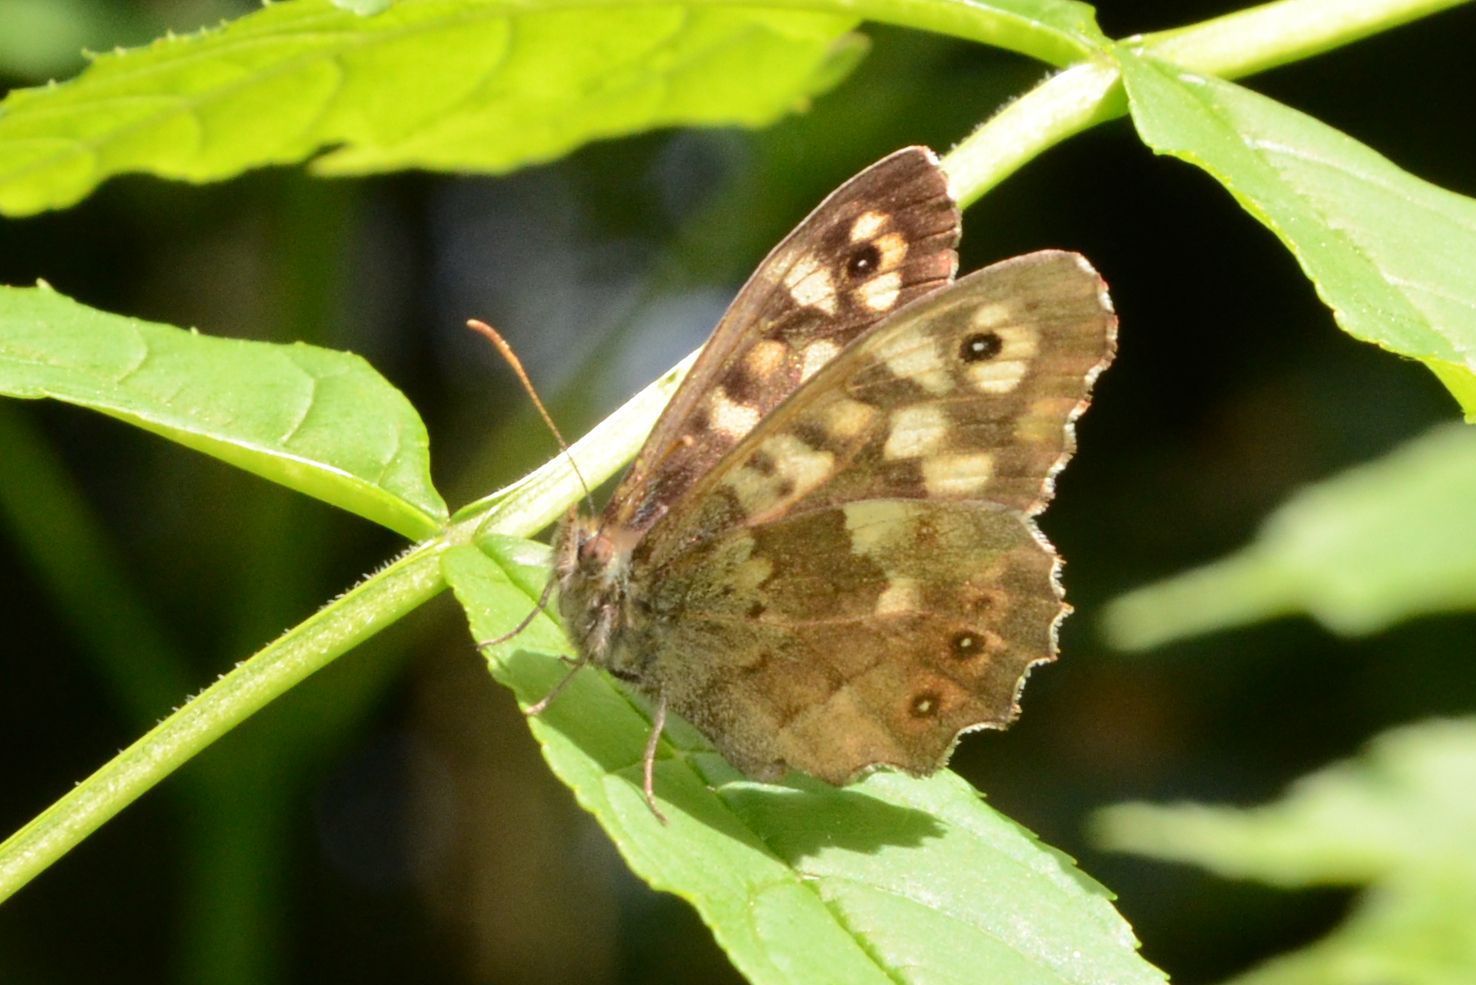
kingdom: Animalia
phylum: Arthropoda
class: Insecta
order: Lepidoptera
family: Nymphalidae
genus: Pararge
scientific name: Pararge aegeria
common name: Speckled wood
